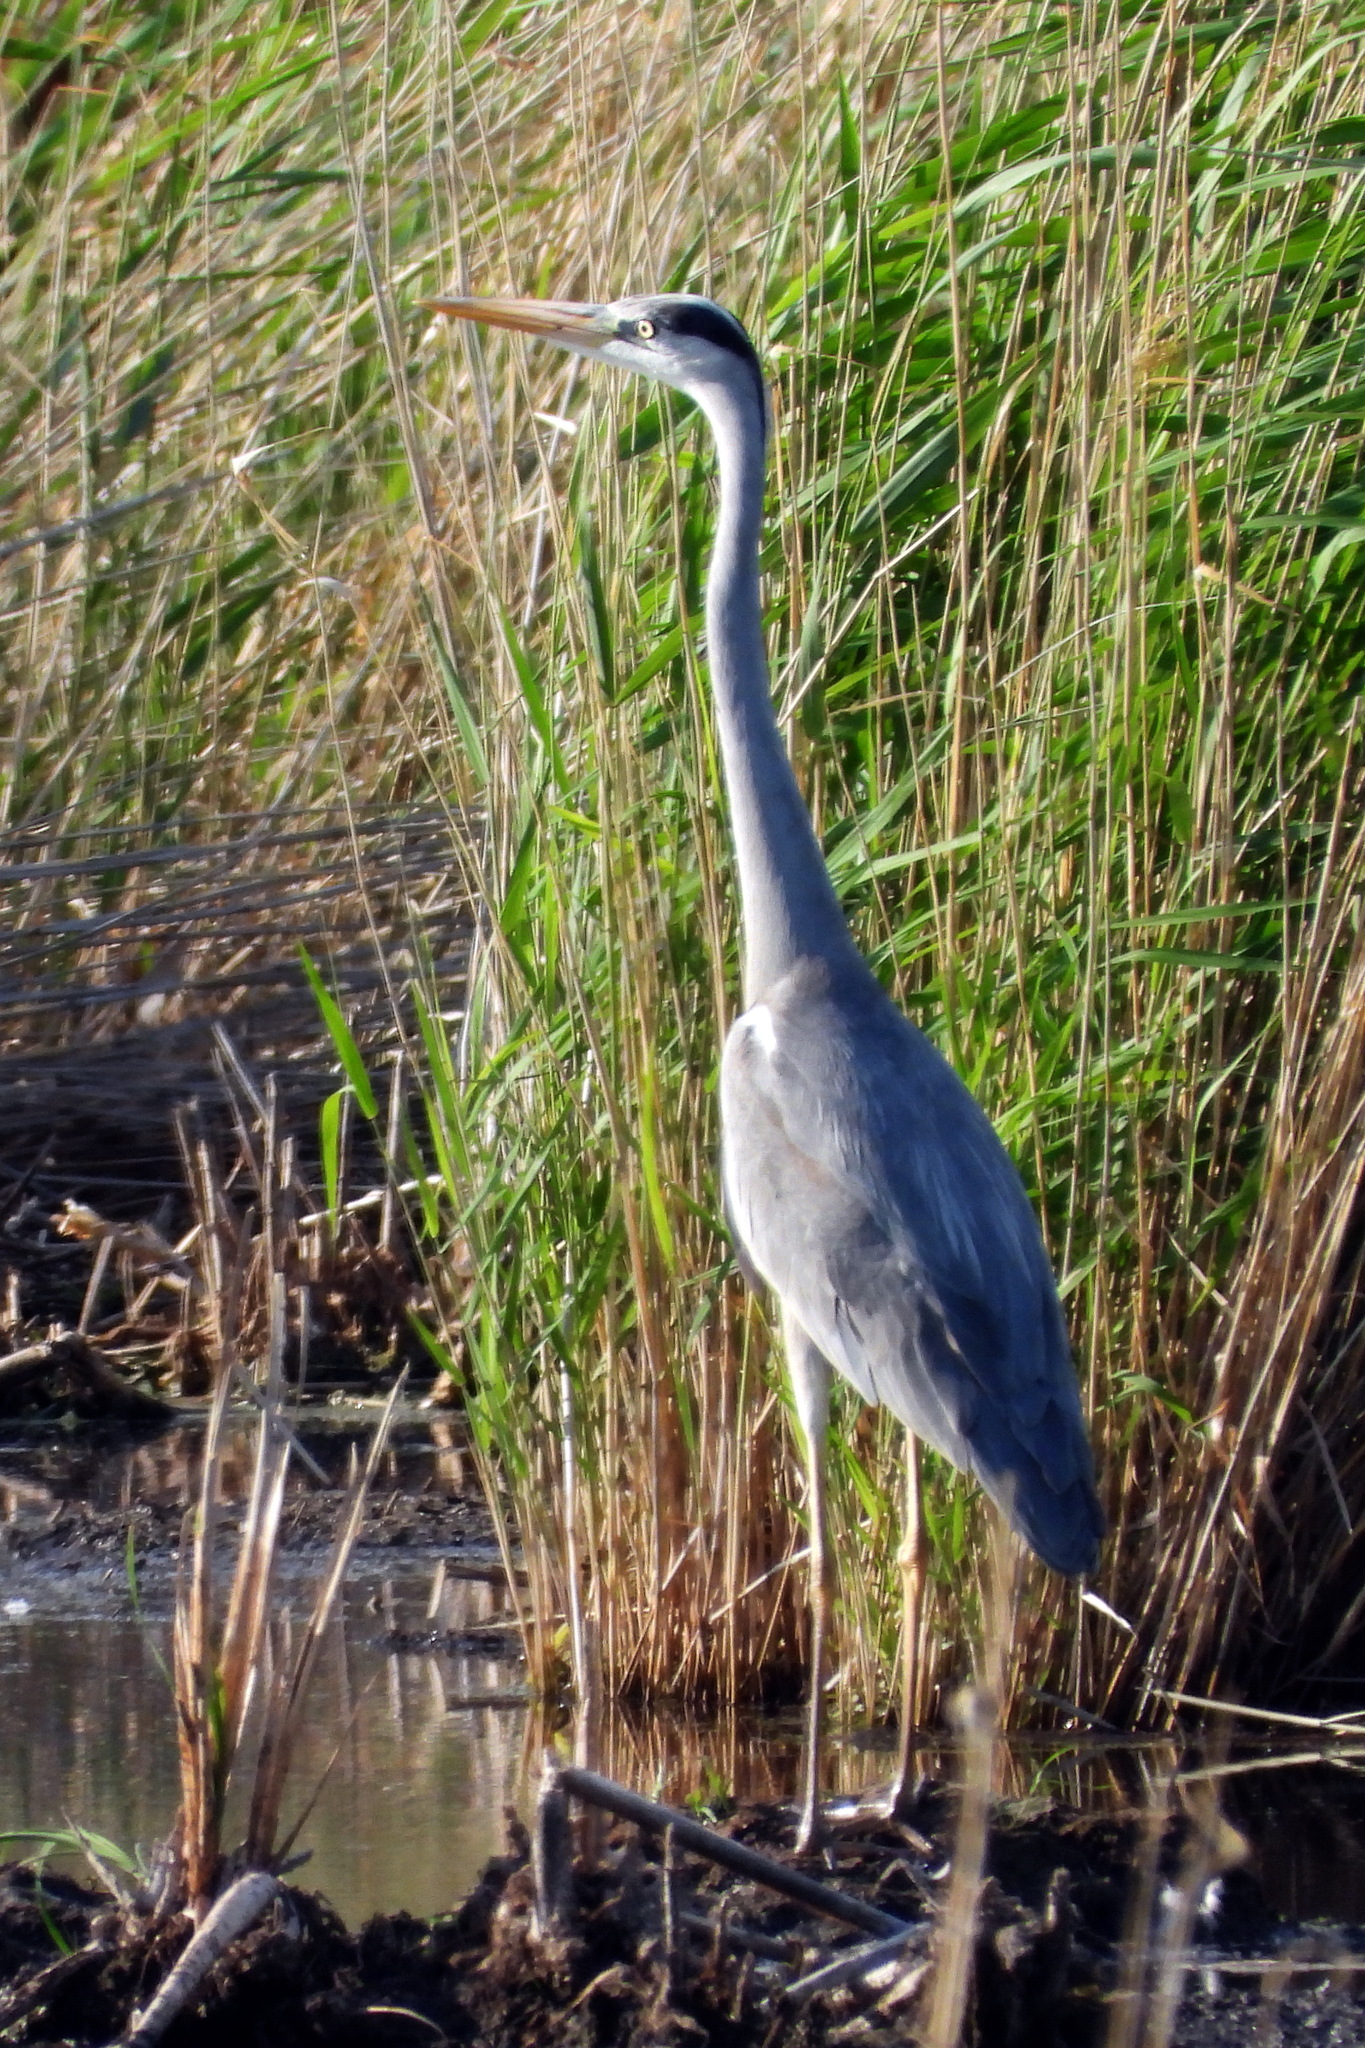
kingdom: Animalia
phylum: Chordata
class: Aves
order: Pelecaniformes
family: Ardeidae
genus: Ardea
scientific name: Ardea cinerea
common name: Grey heron
